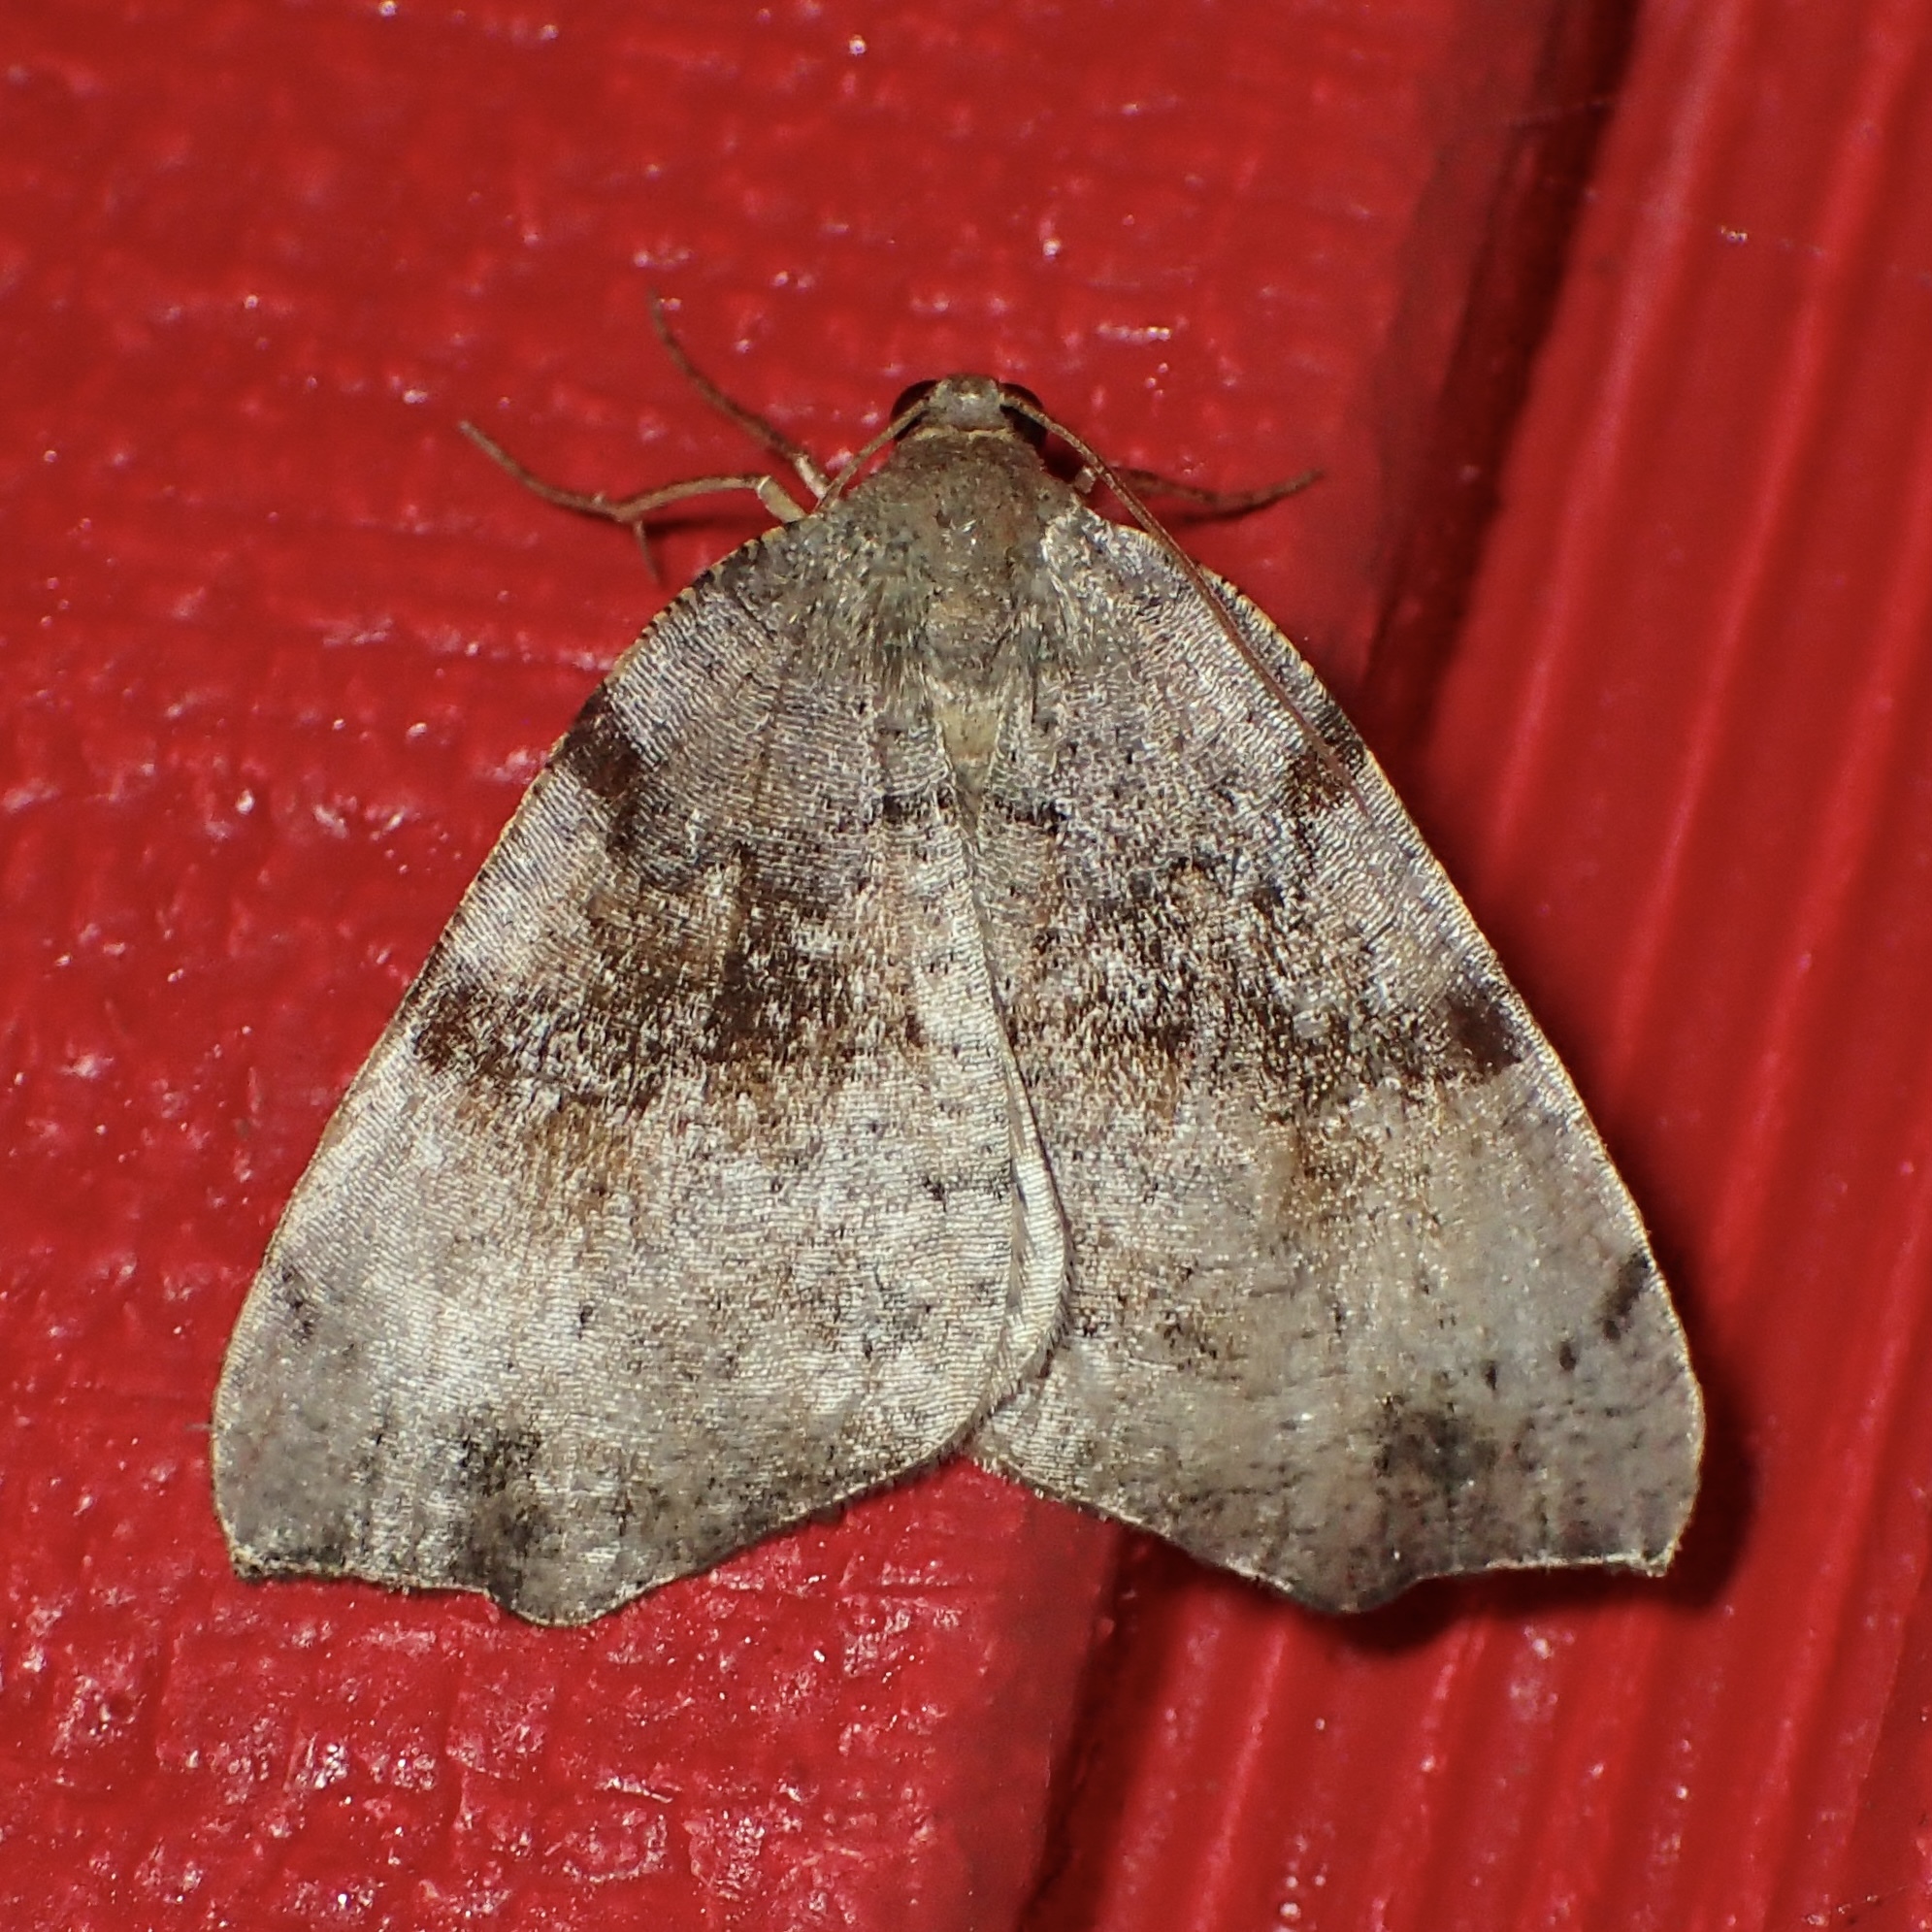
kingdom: Animalia
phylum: Arthropoda
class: Insecta
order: Lepidoptera
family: Geometridae
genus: Sestra
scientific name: Sestra flexata
